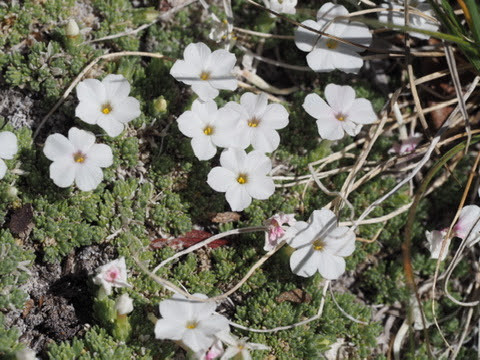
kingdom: Plantae
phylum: Tracheophyta
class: Magnoliopsida
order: Ericales
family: Polemoniaceae
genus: Phlox
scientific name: Phlox condensata
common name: Compact phlox
